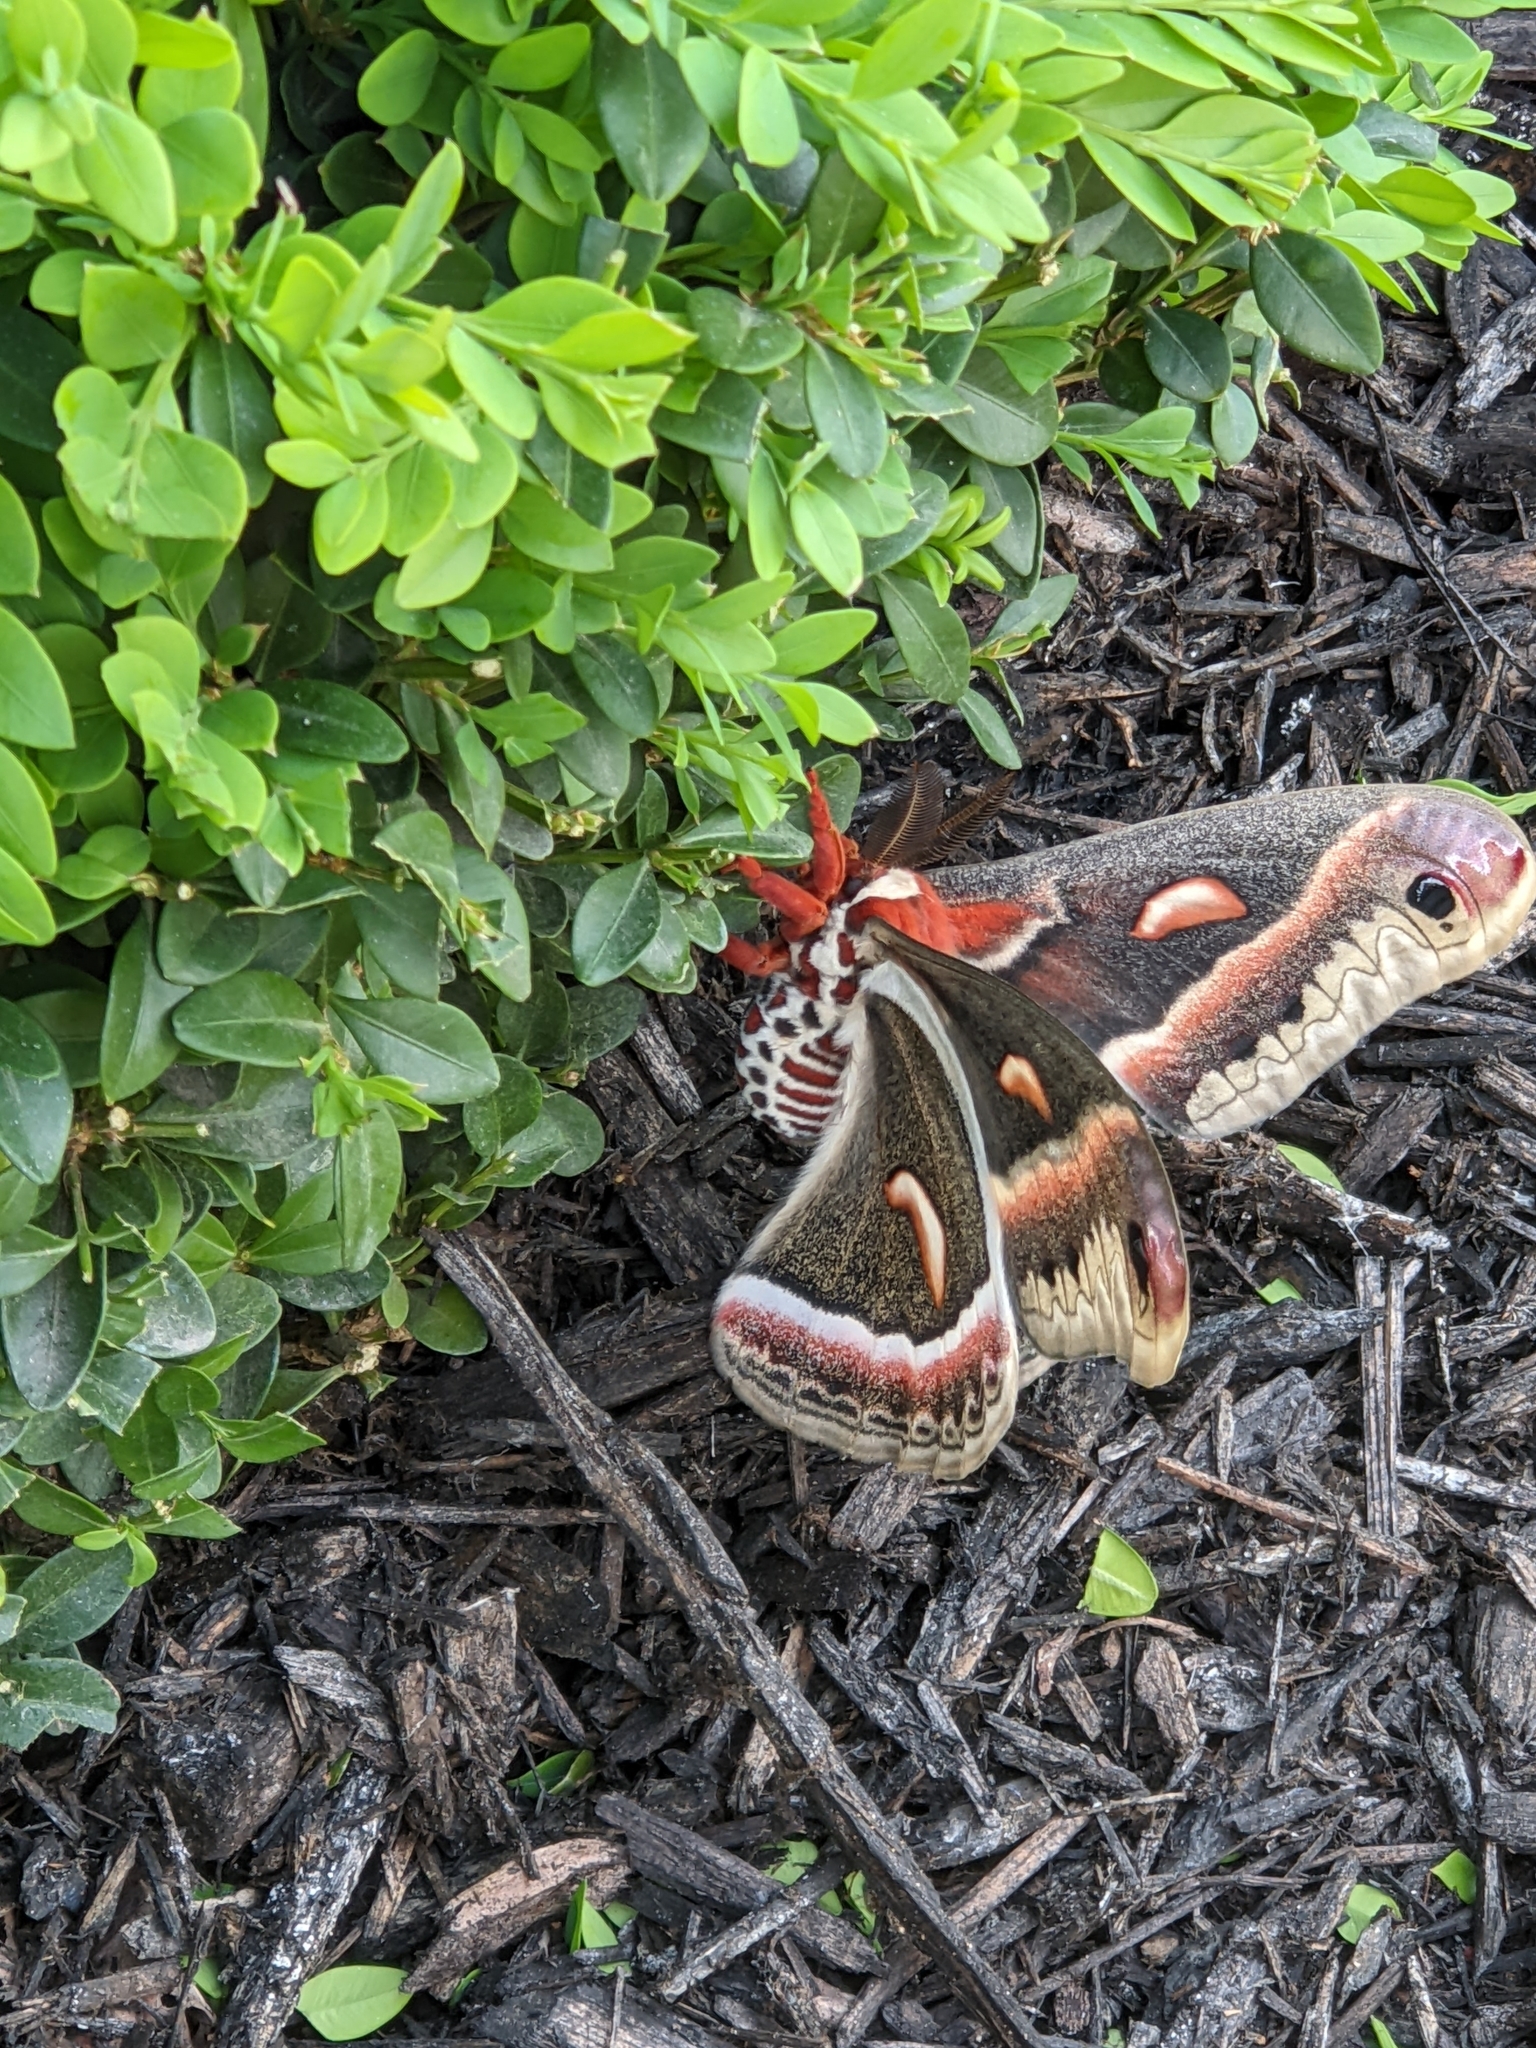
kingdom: Animalia
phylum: Arthropoda
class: Insecta
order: Lepidoptera
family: Saturniidae
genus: Hyalophora
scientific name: Hyalophora cecropia
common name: Cecropia silkmoth
